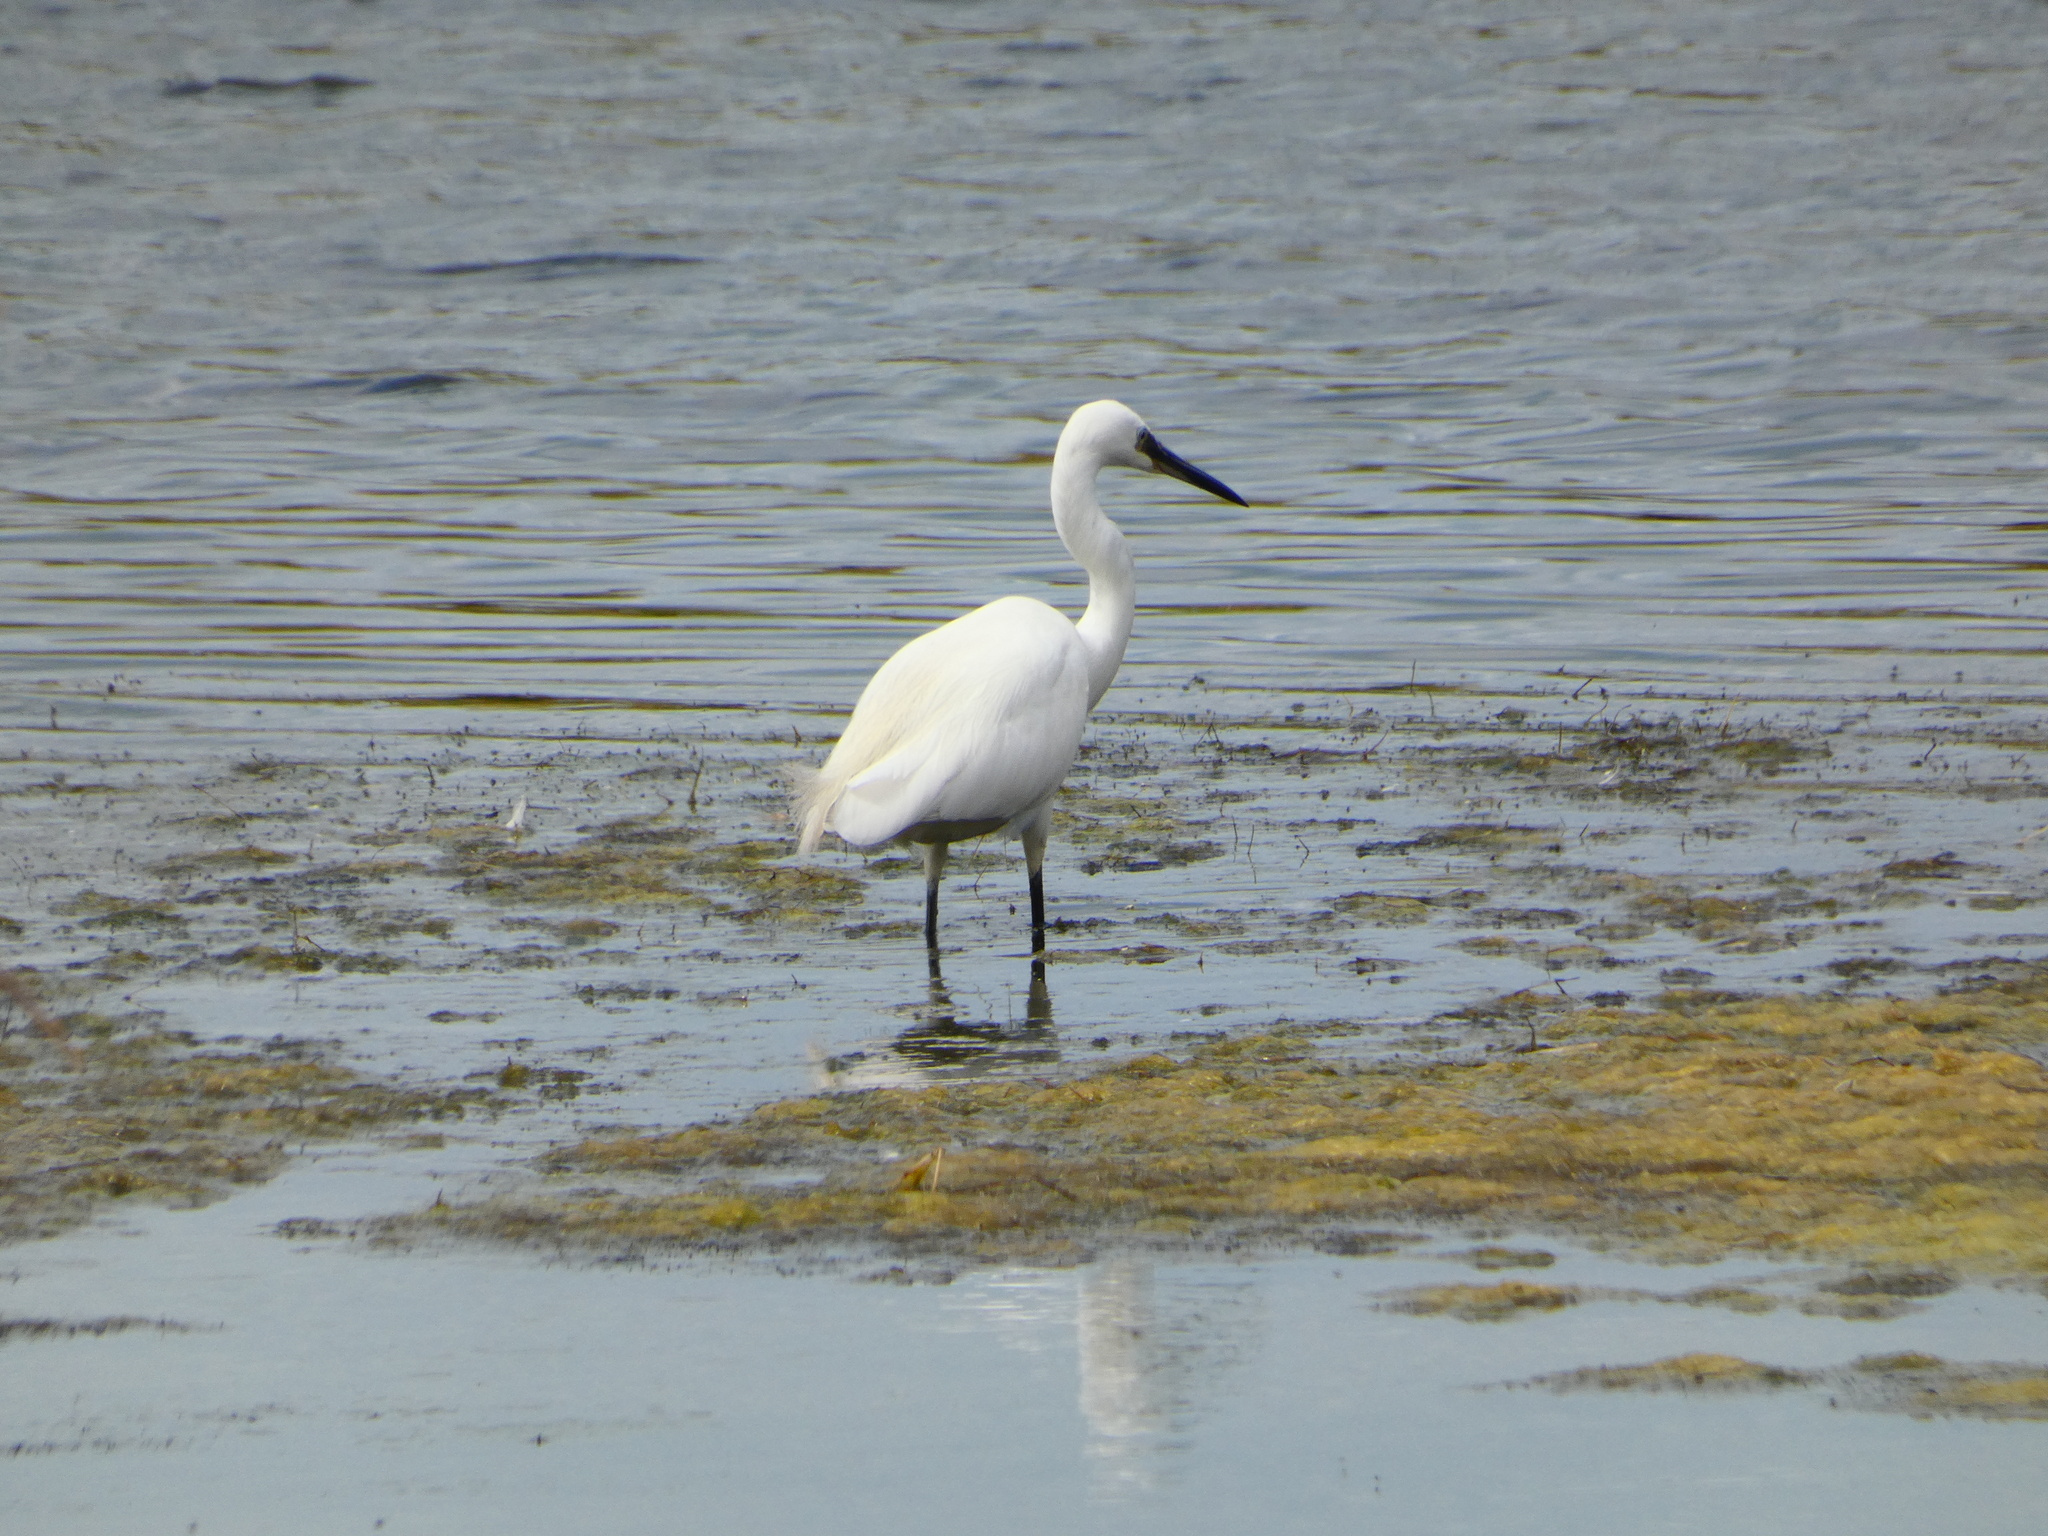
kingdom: Animalia
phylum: Chordata
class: Aves
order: Pelecaniformes
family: Ardeidae
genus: Egretta
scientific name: Egretta garzetta
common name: Little egret
